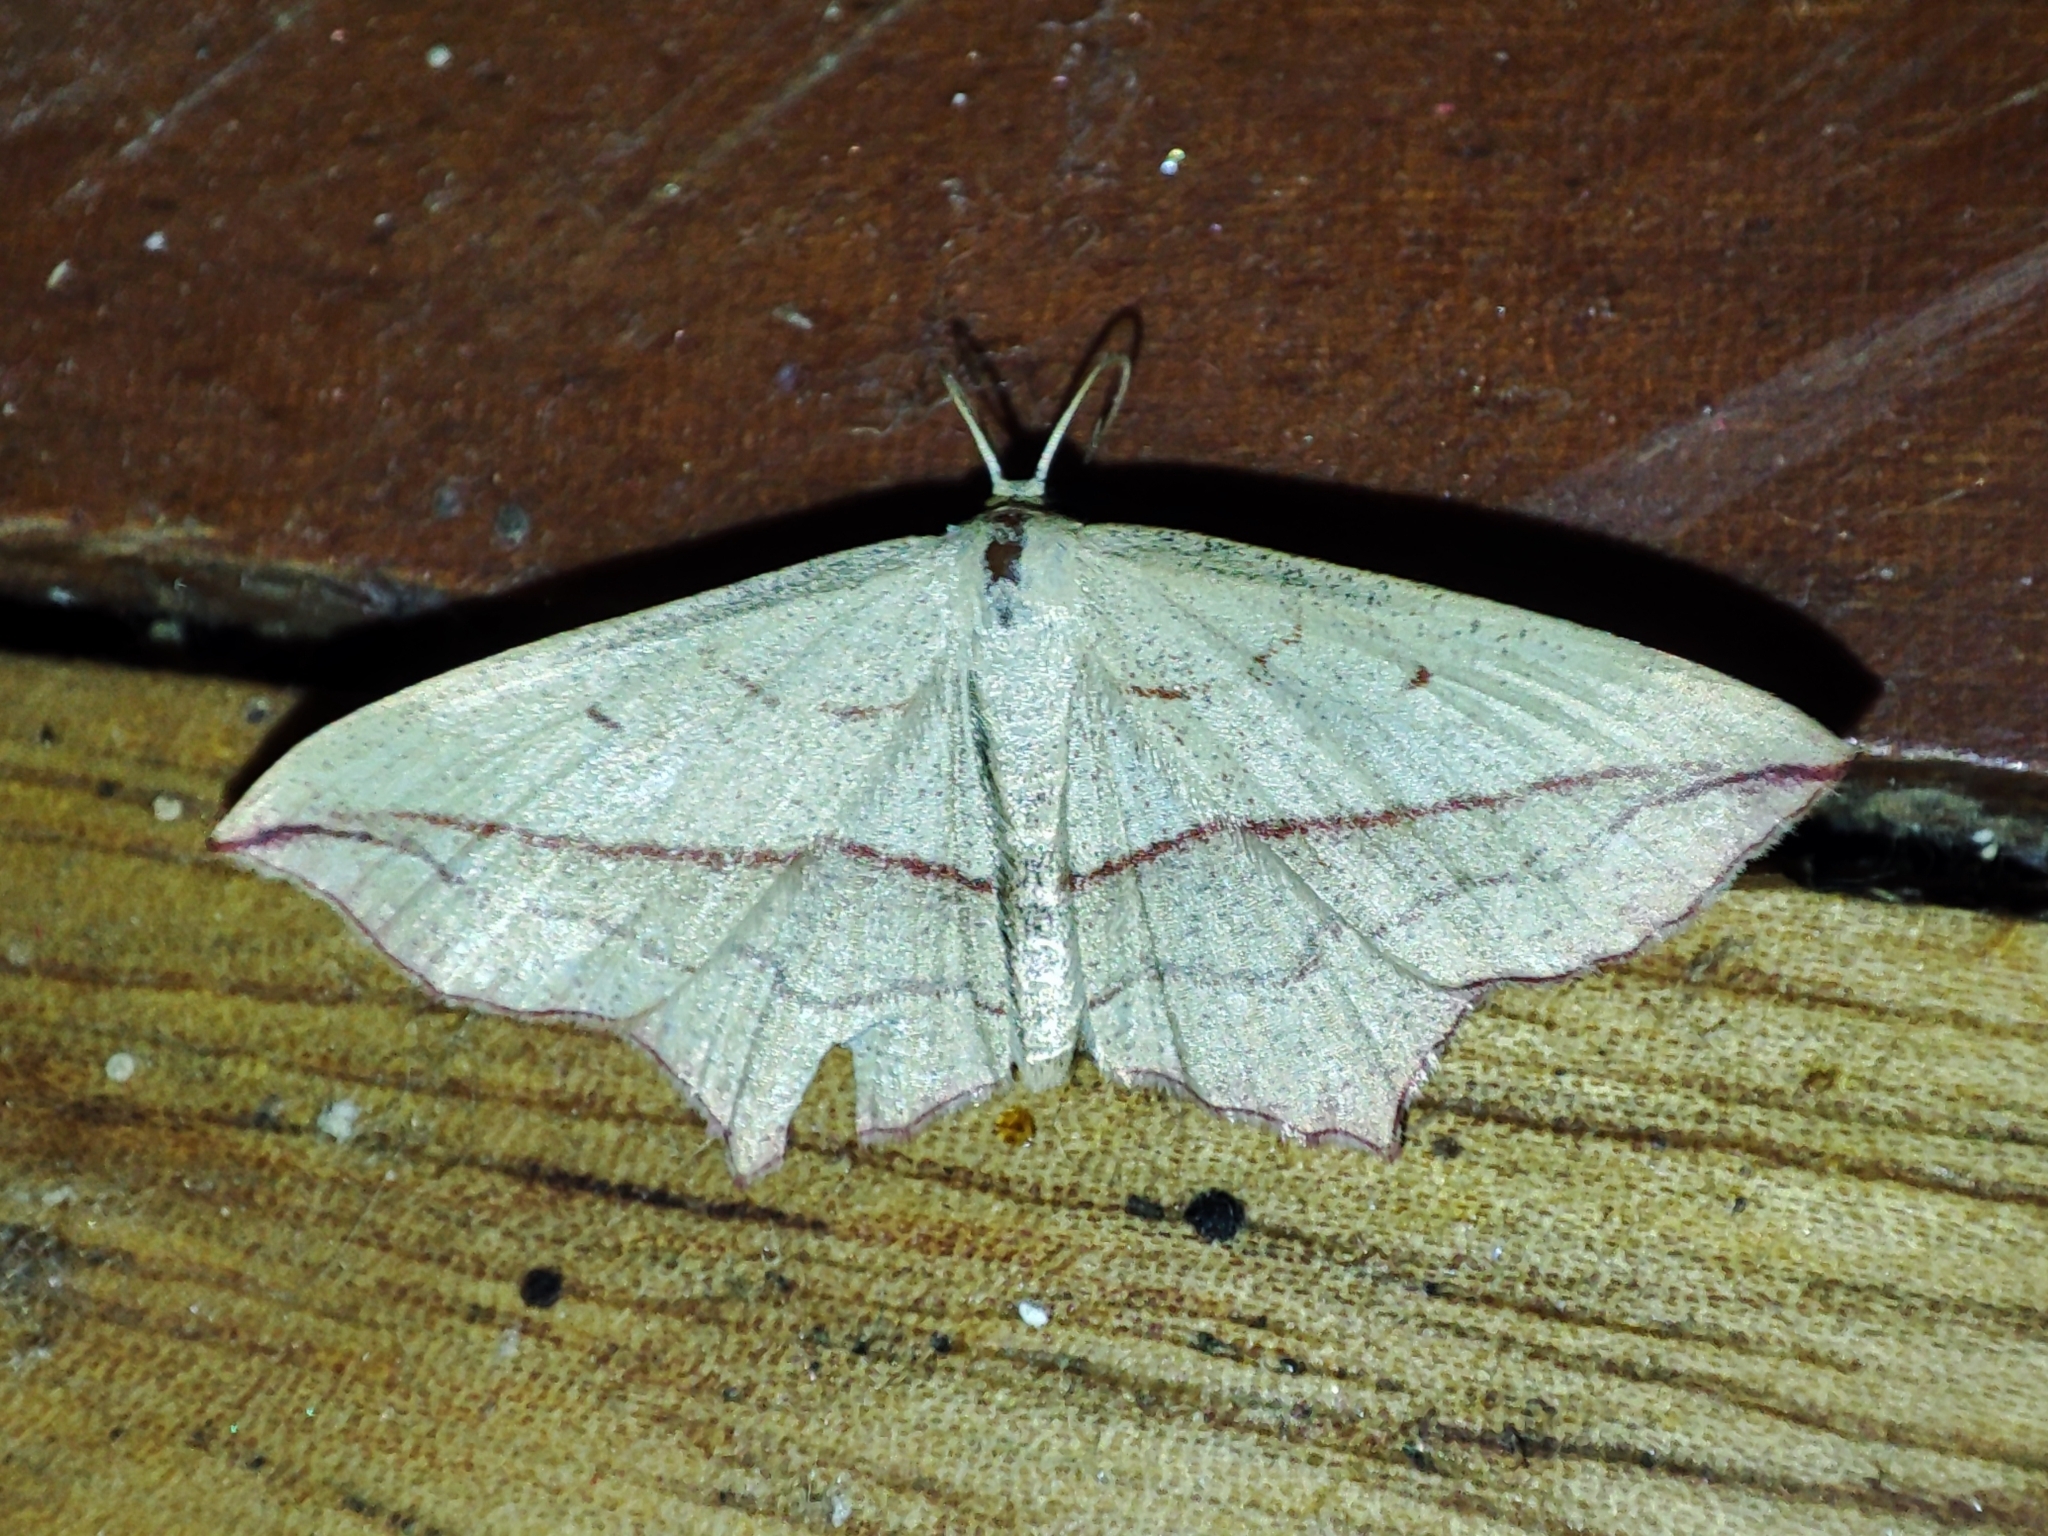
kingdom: Animalia
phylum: Arthropoda
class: Insecta
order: Lepidoptera
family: Geometridae
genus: Timandra
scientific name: Timandra comae
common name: Blood-vein
